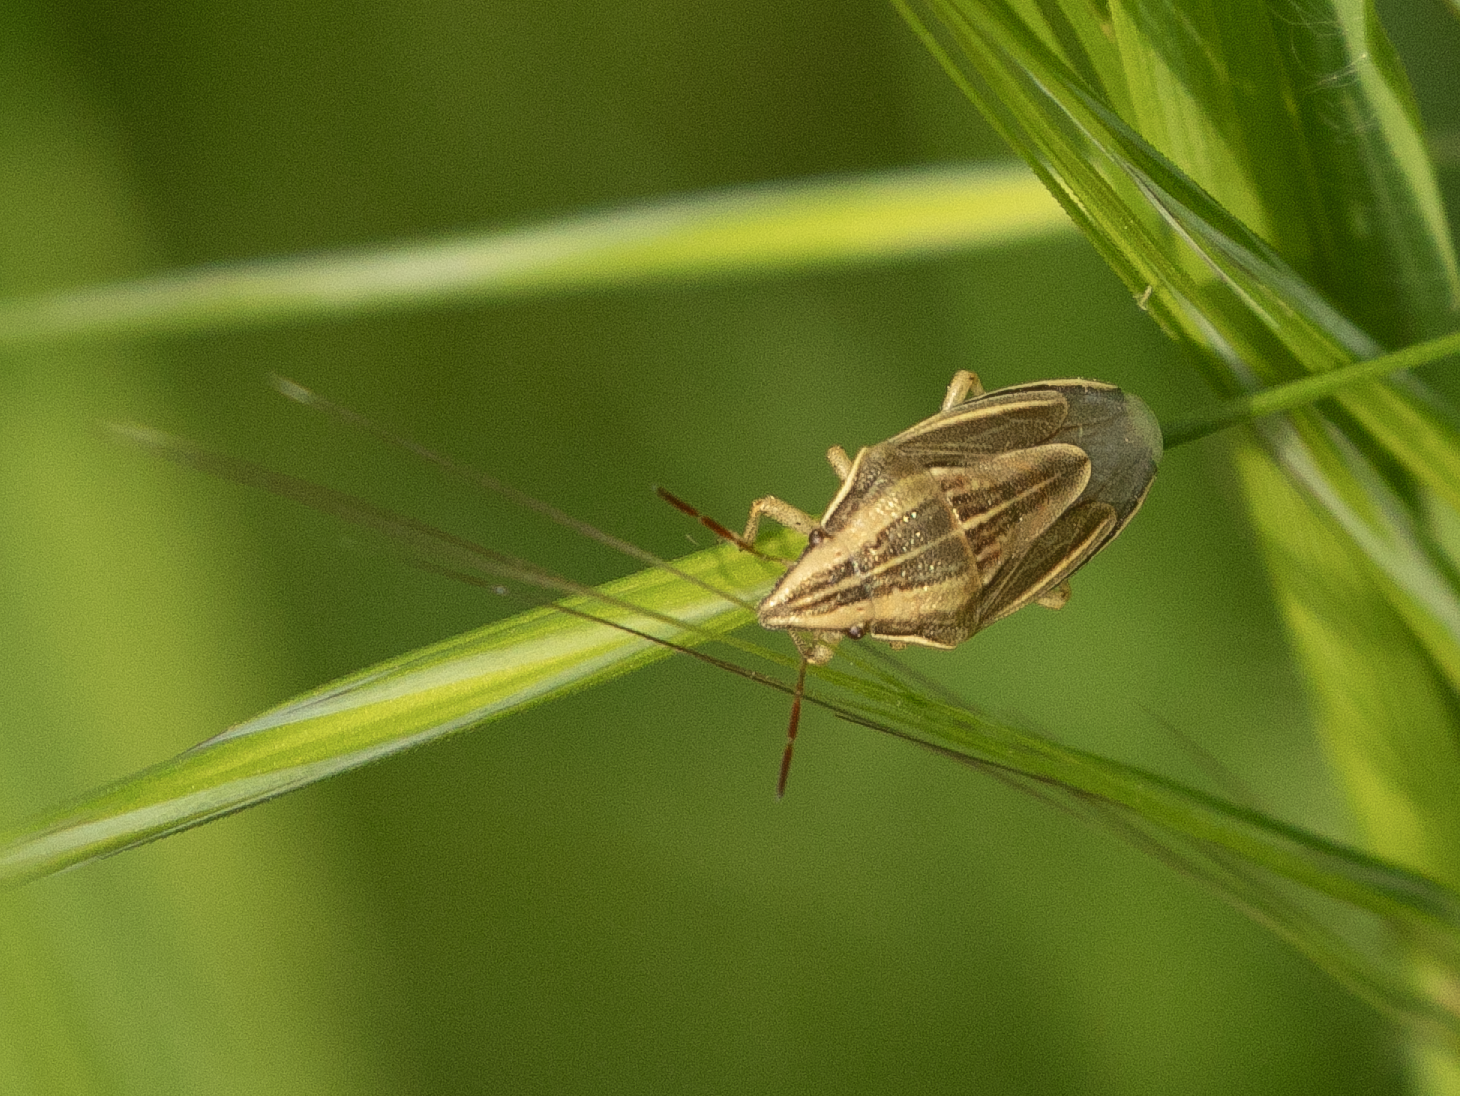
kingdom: Animalia
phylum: Arthropoda
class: Insecta
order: Hemiptera
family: Pentatomidae
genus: Aelia
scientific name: Aelia acuminata
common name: Bishop's mitre
